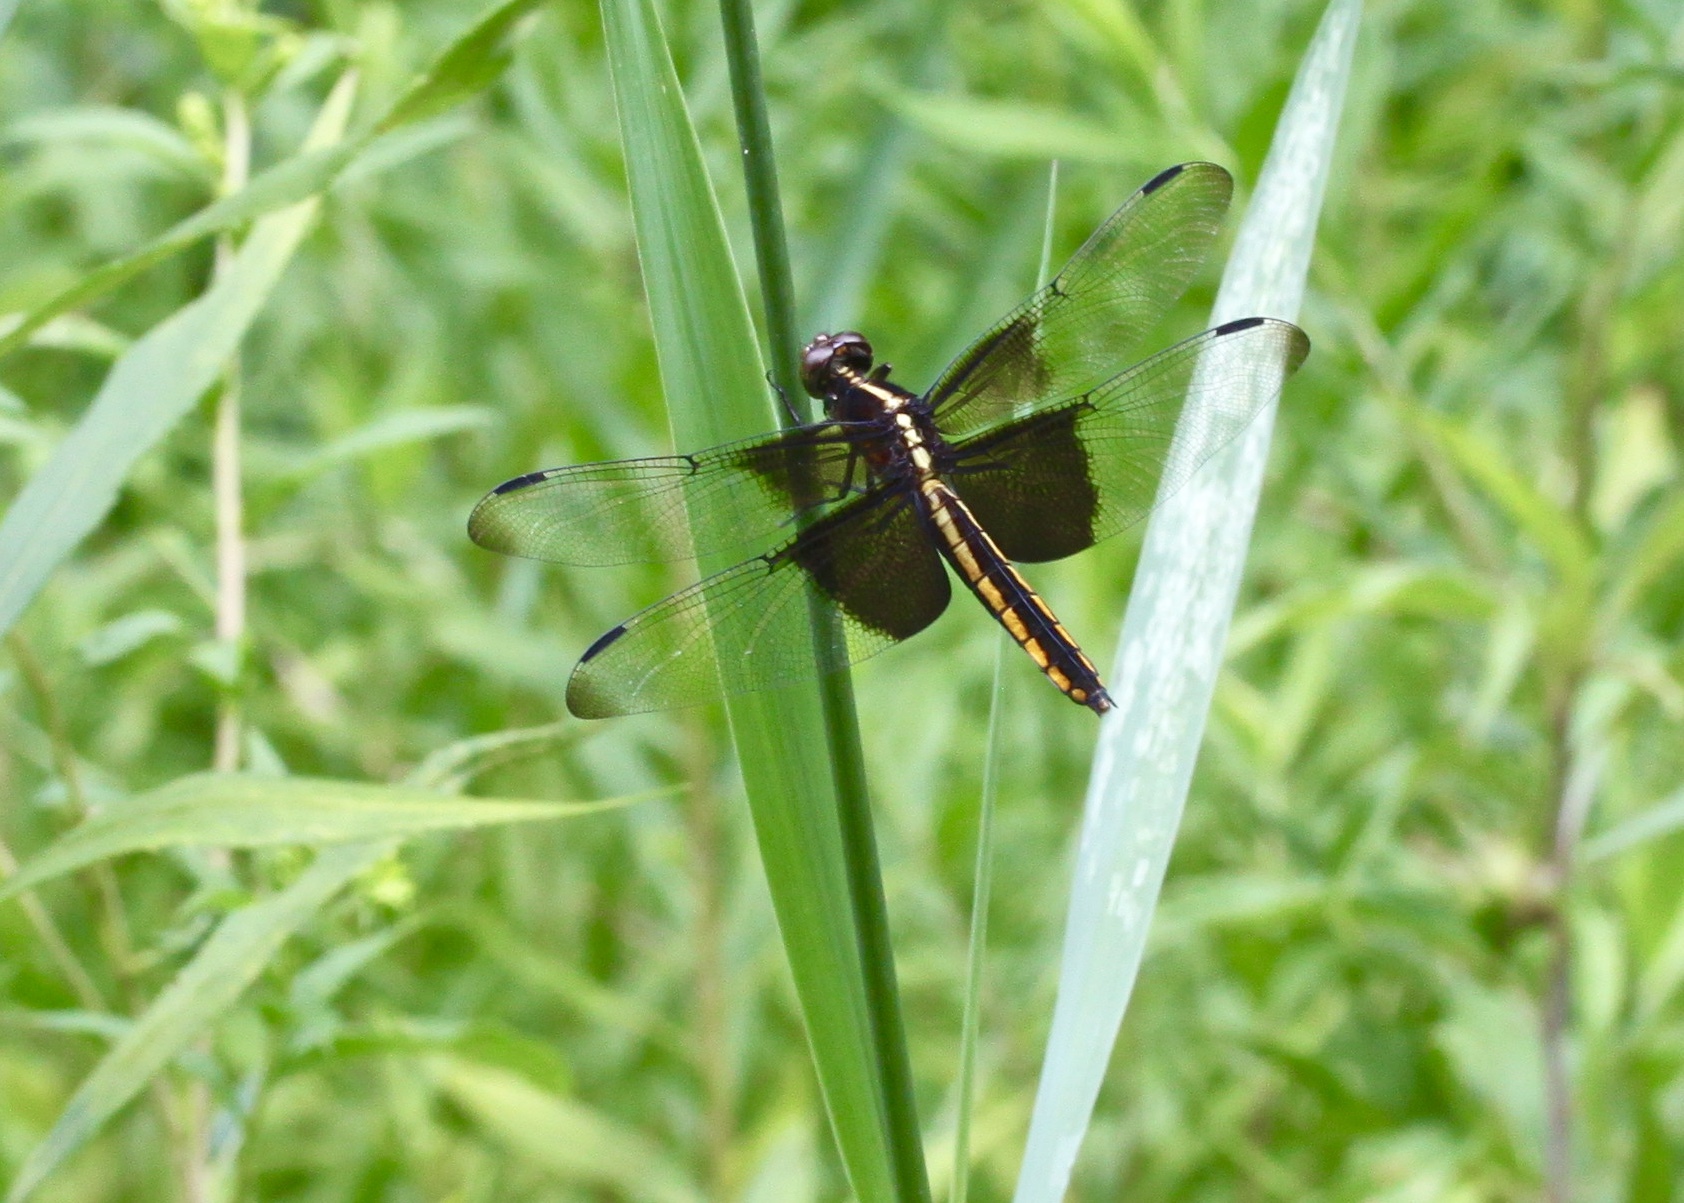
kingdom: Animalia
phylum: Arthropoda
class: Insecta
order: Odonata
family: Libellulidae
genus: Libellula
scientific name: Libellula luctuosa
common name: Widow skimmer
